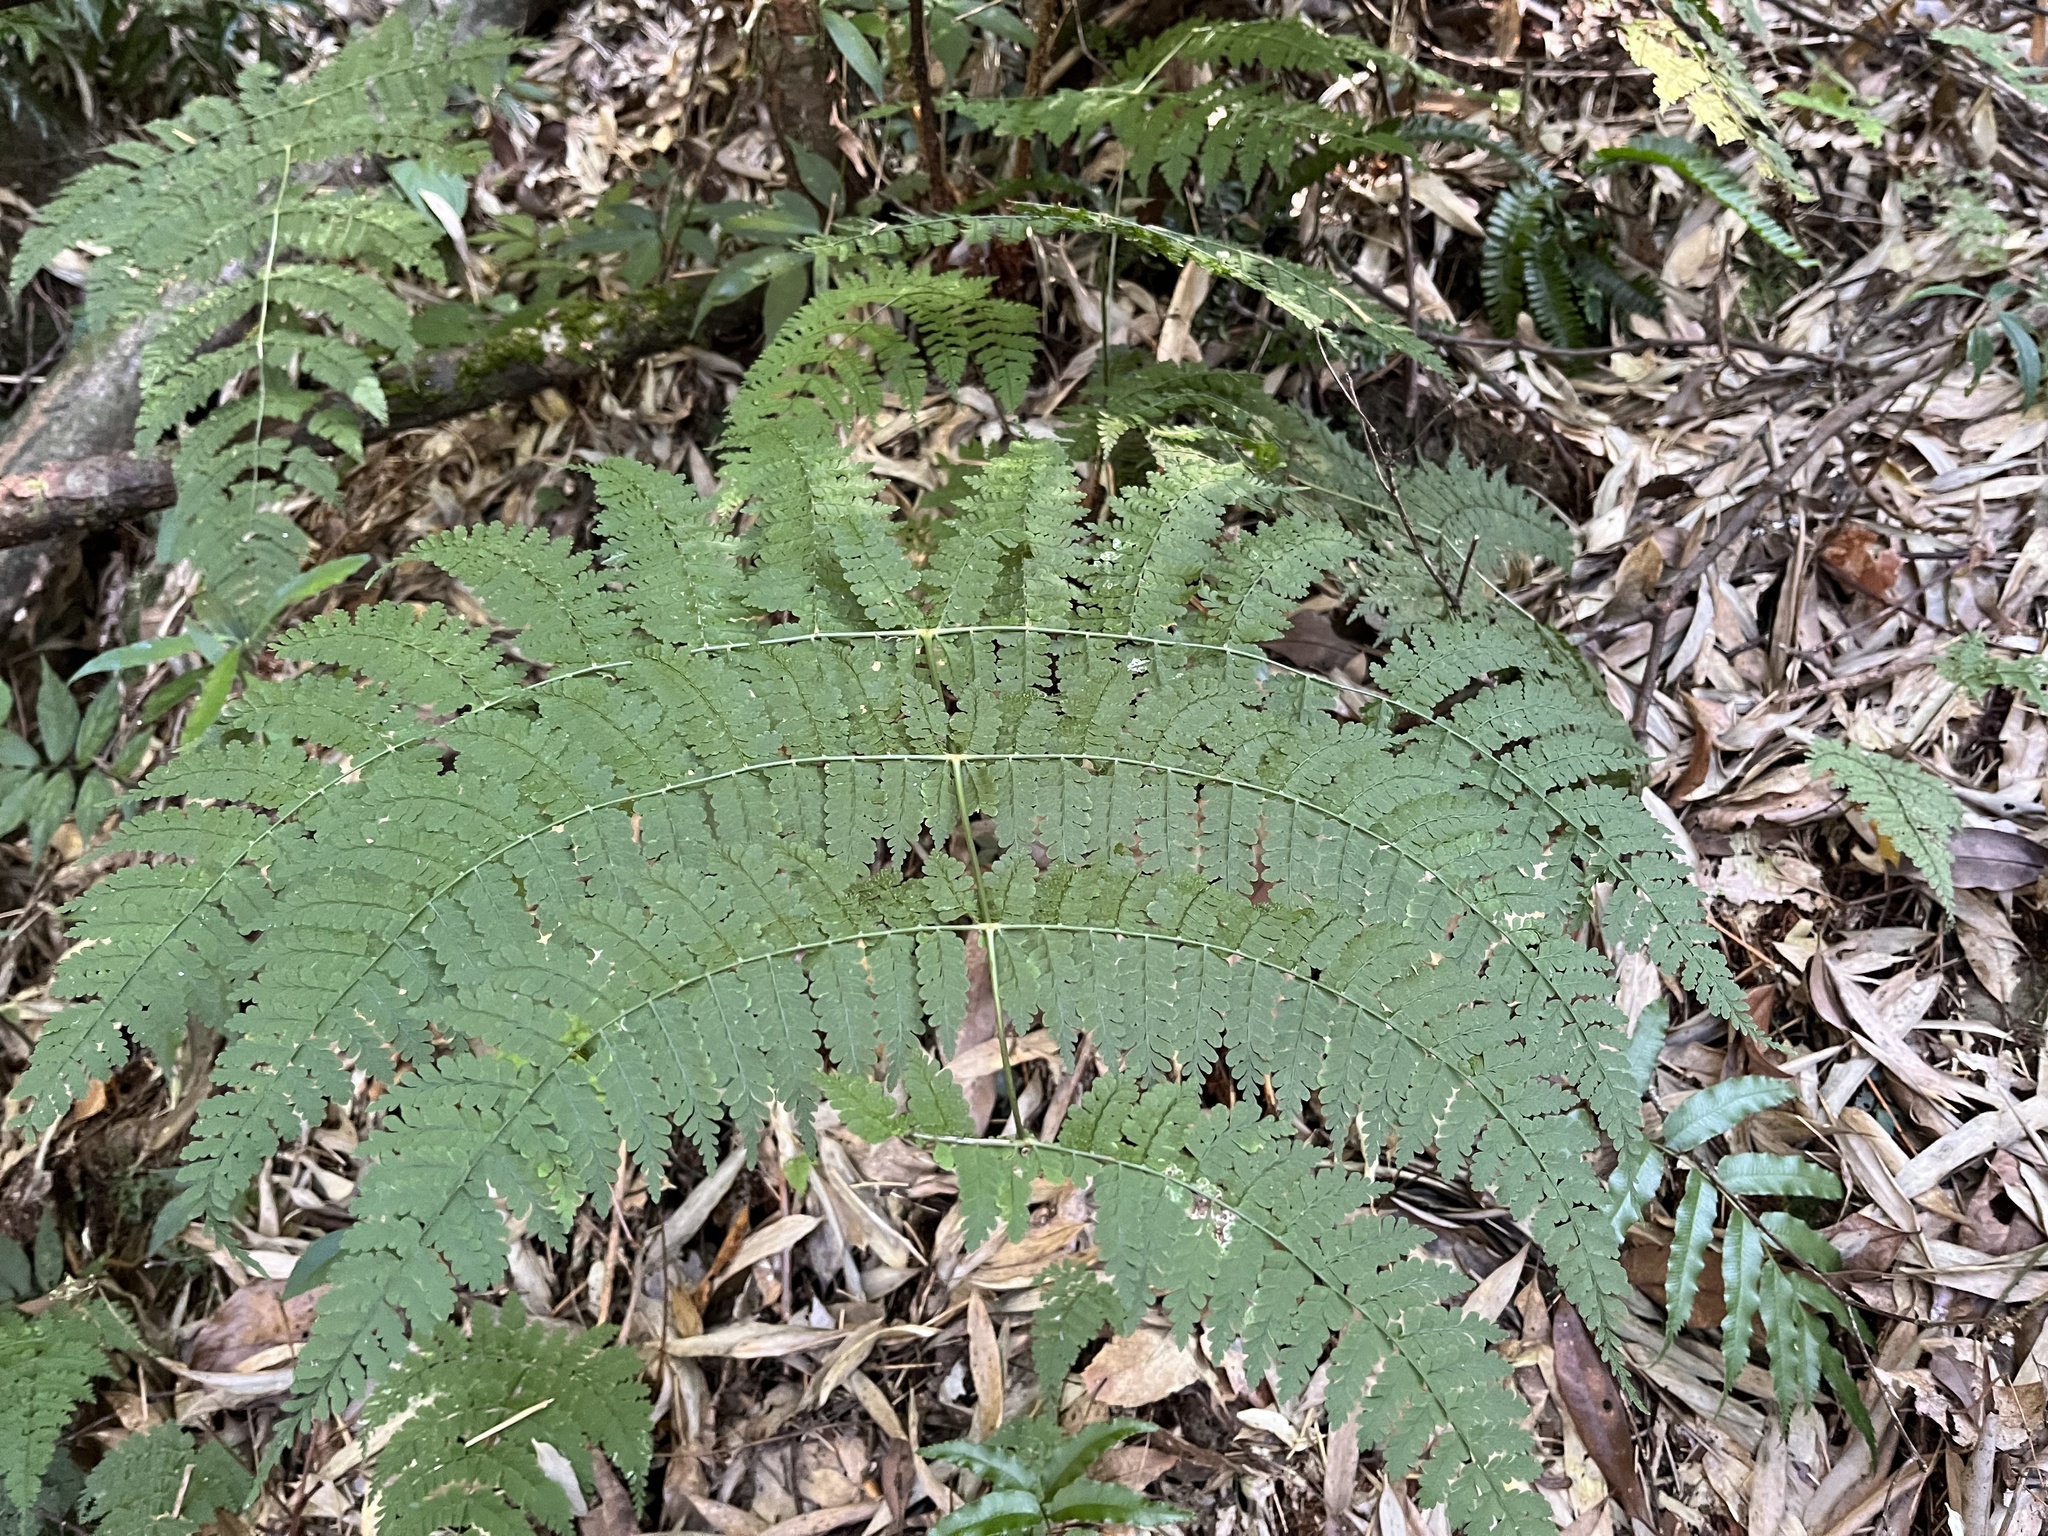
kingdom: Plantae
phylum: Tracheophyta
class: Polypodiopsida
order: Polypodiales
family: Dryopteridaceae
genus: Dryopteris
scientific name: Dryopteris paleolata
